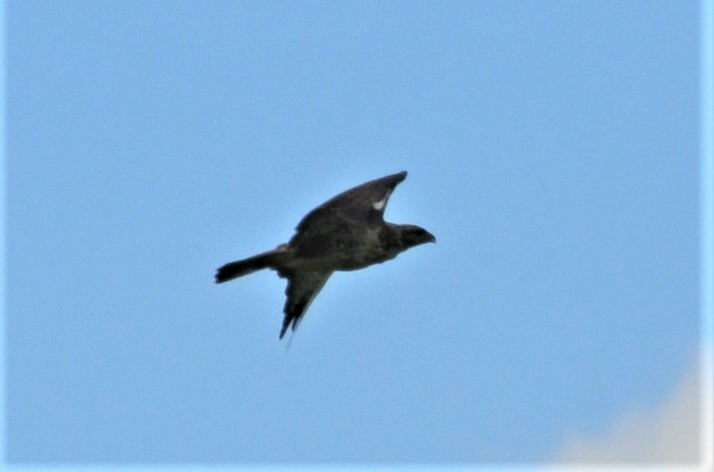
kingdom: Animalia
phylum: Chordata
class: Aves
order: Accipitriformes
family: Accipitridae
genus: Buteo
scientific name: Buteo buteo
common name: Common buzzard
